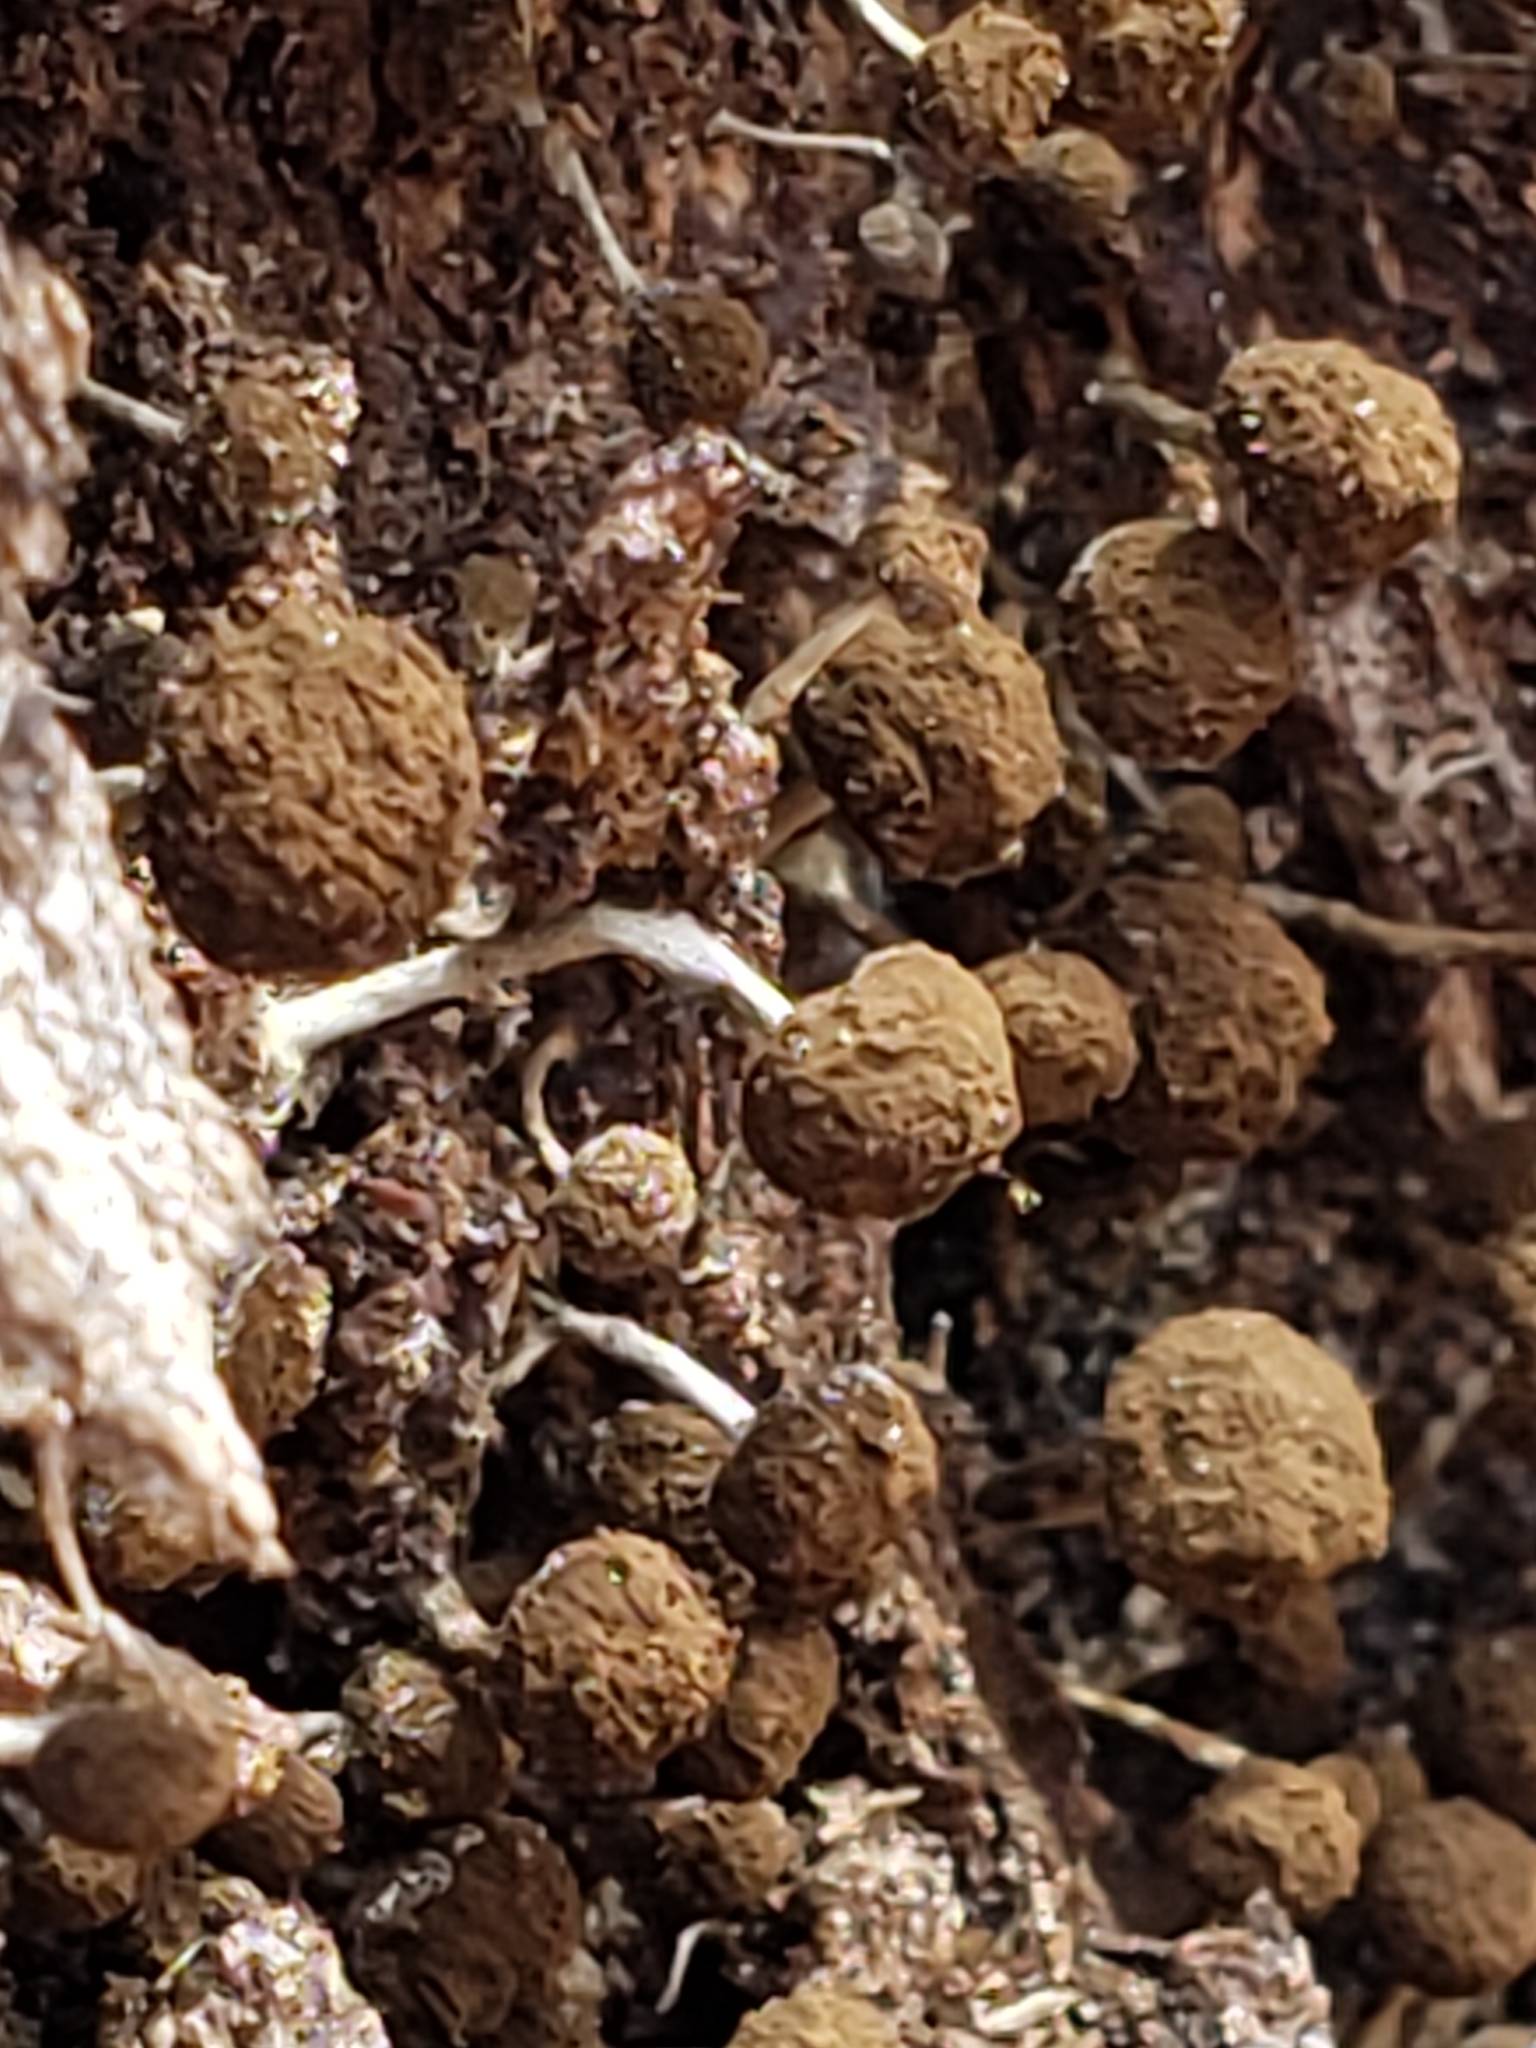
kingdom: Fungi
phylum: Basidiomycota
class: Atractiellomycetes
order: Atractiellales
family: Phleogenaceae
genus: Phleogena
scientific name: Phleogena faginea
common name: Fenugreek stalkball
